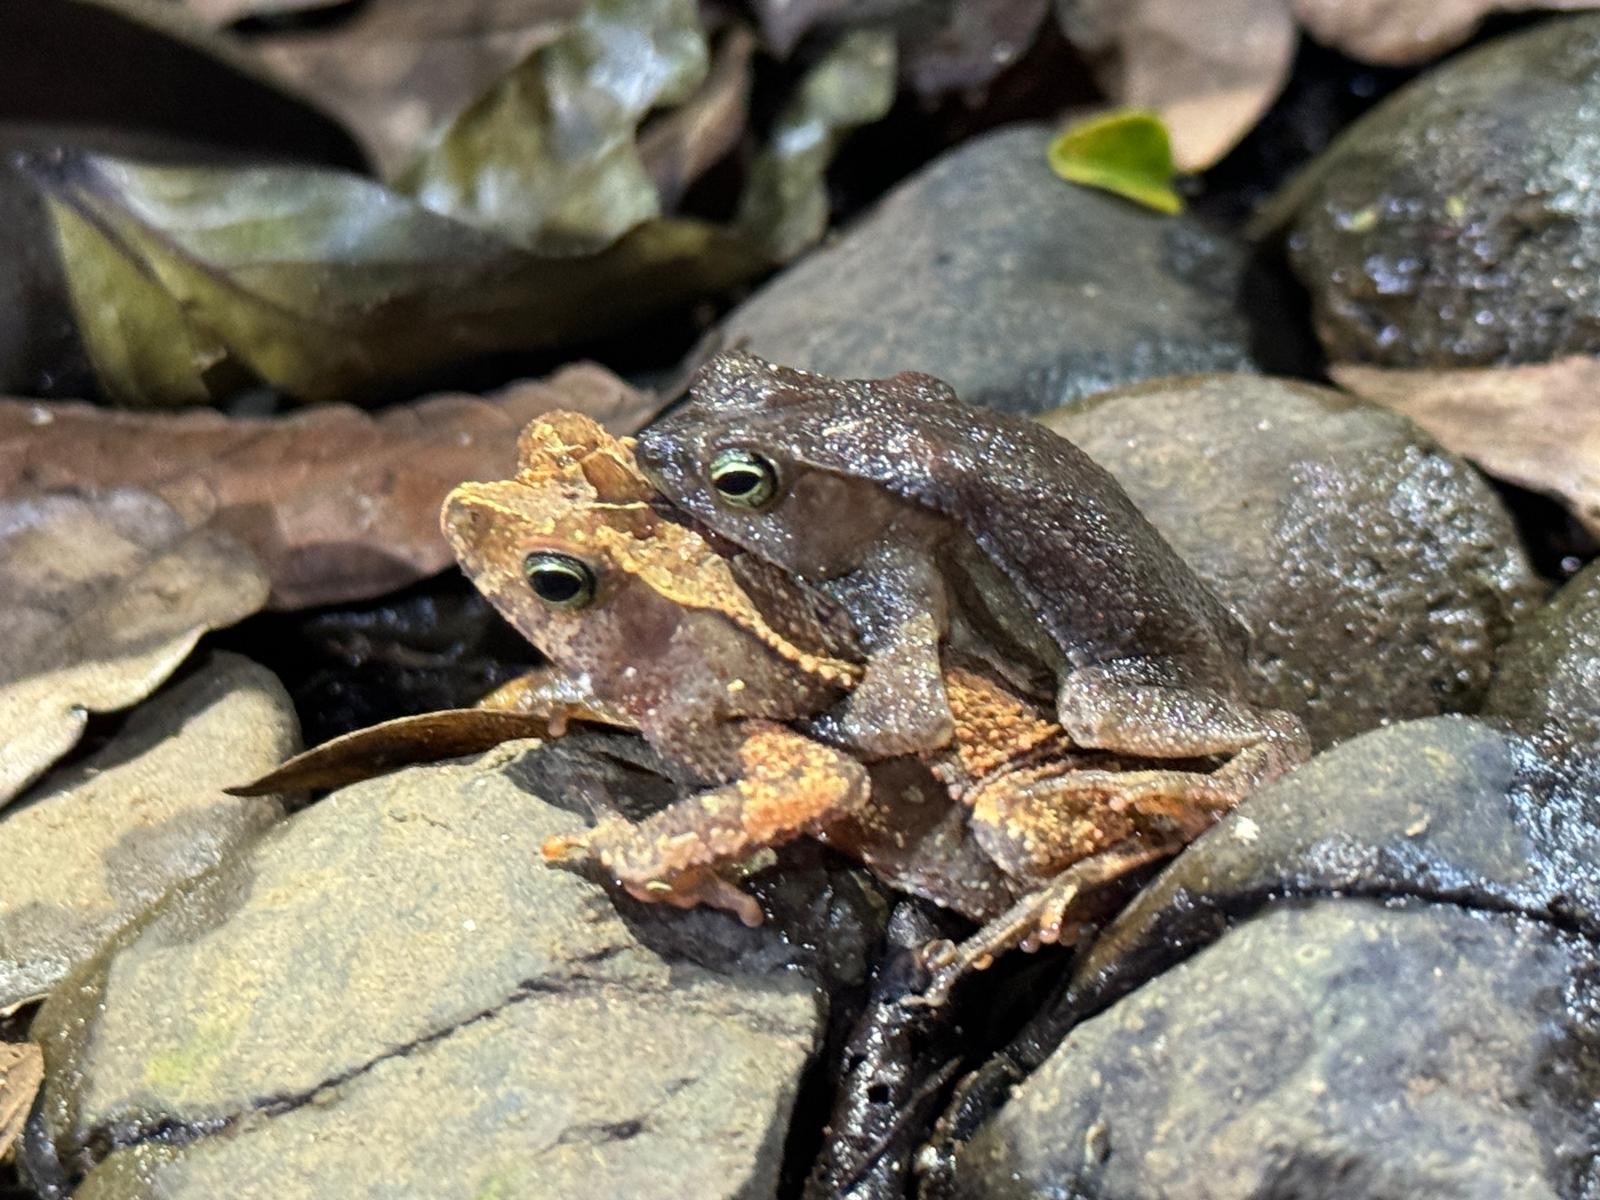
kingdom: Animalia
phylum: Chordata
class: Amphibia
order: Anura
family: Bufonidae
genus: Rhinella
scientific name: Rhinella alata
